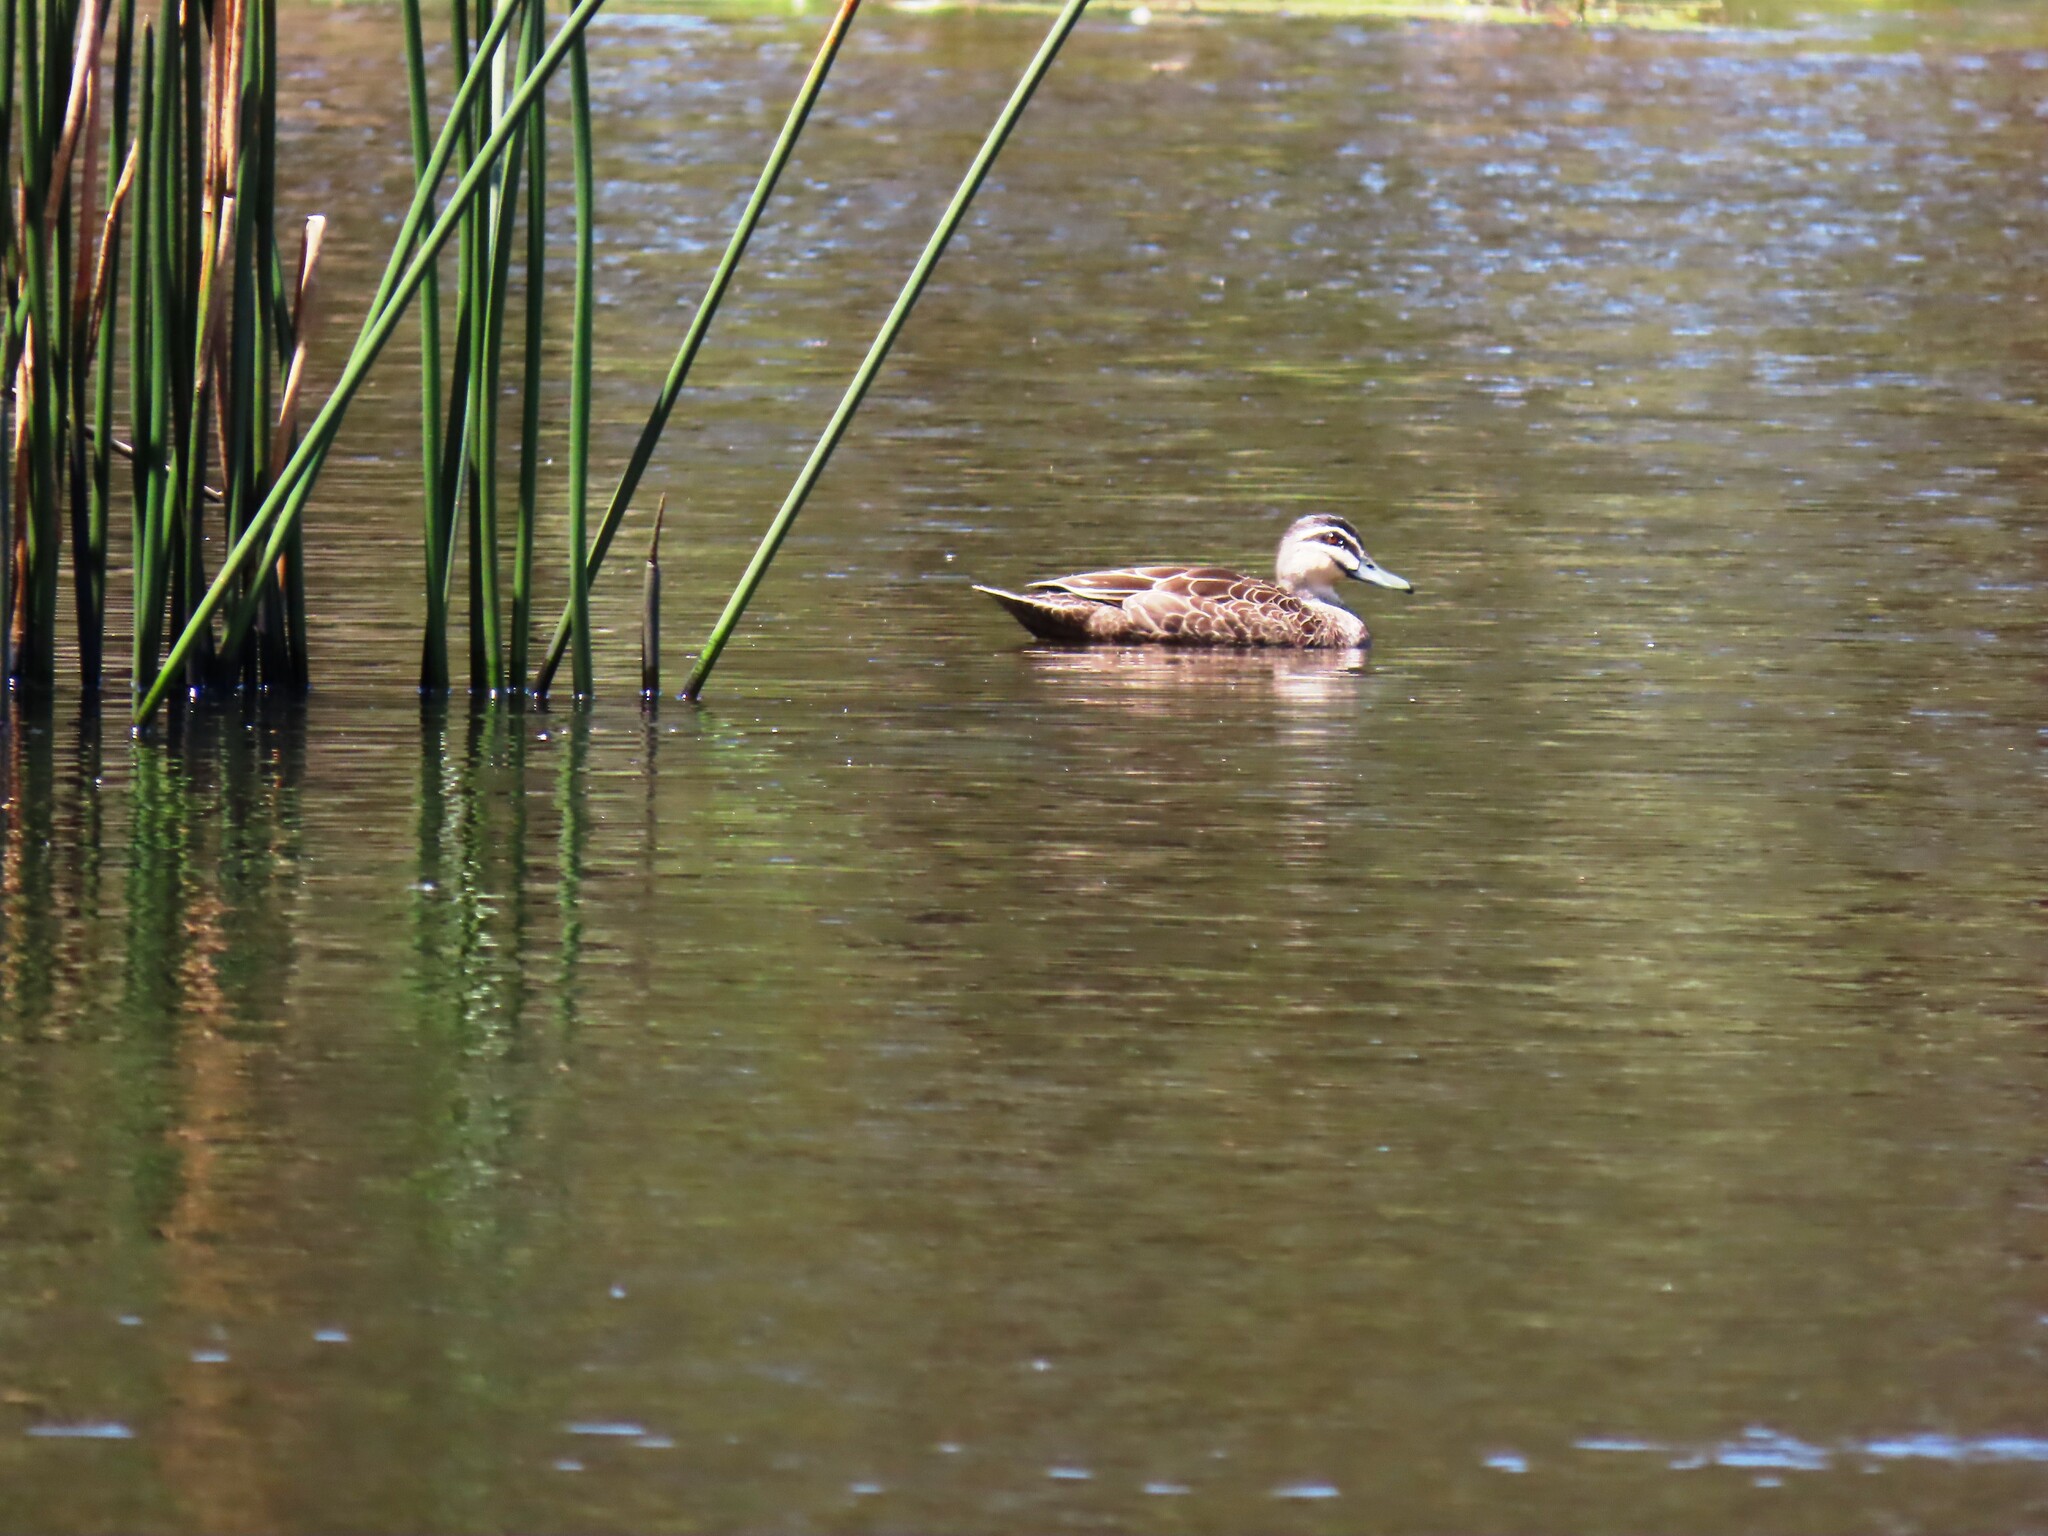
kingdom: Animalia
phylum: Chordata
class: Aves
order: Anseriformes
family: Anatidae
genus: Anas
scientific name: Anas superciliosa
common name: Pacific black duck
